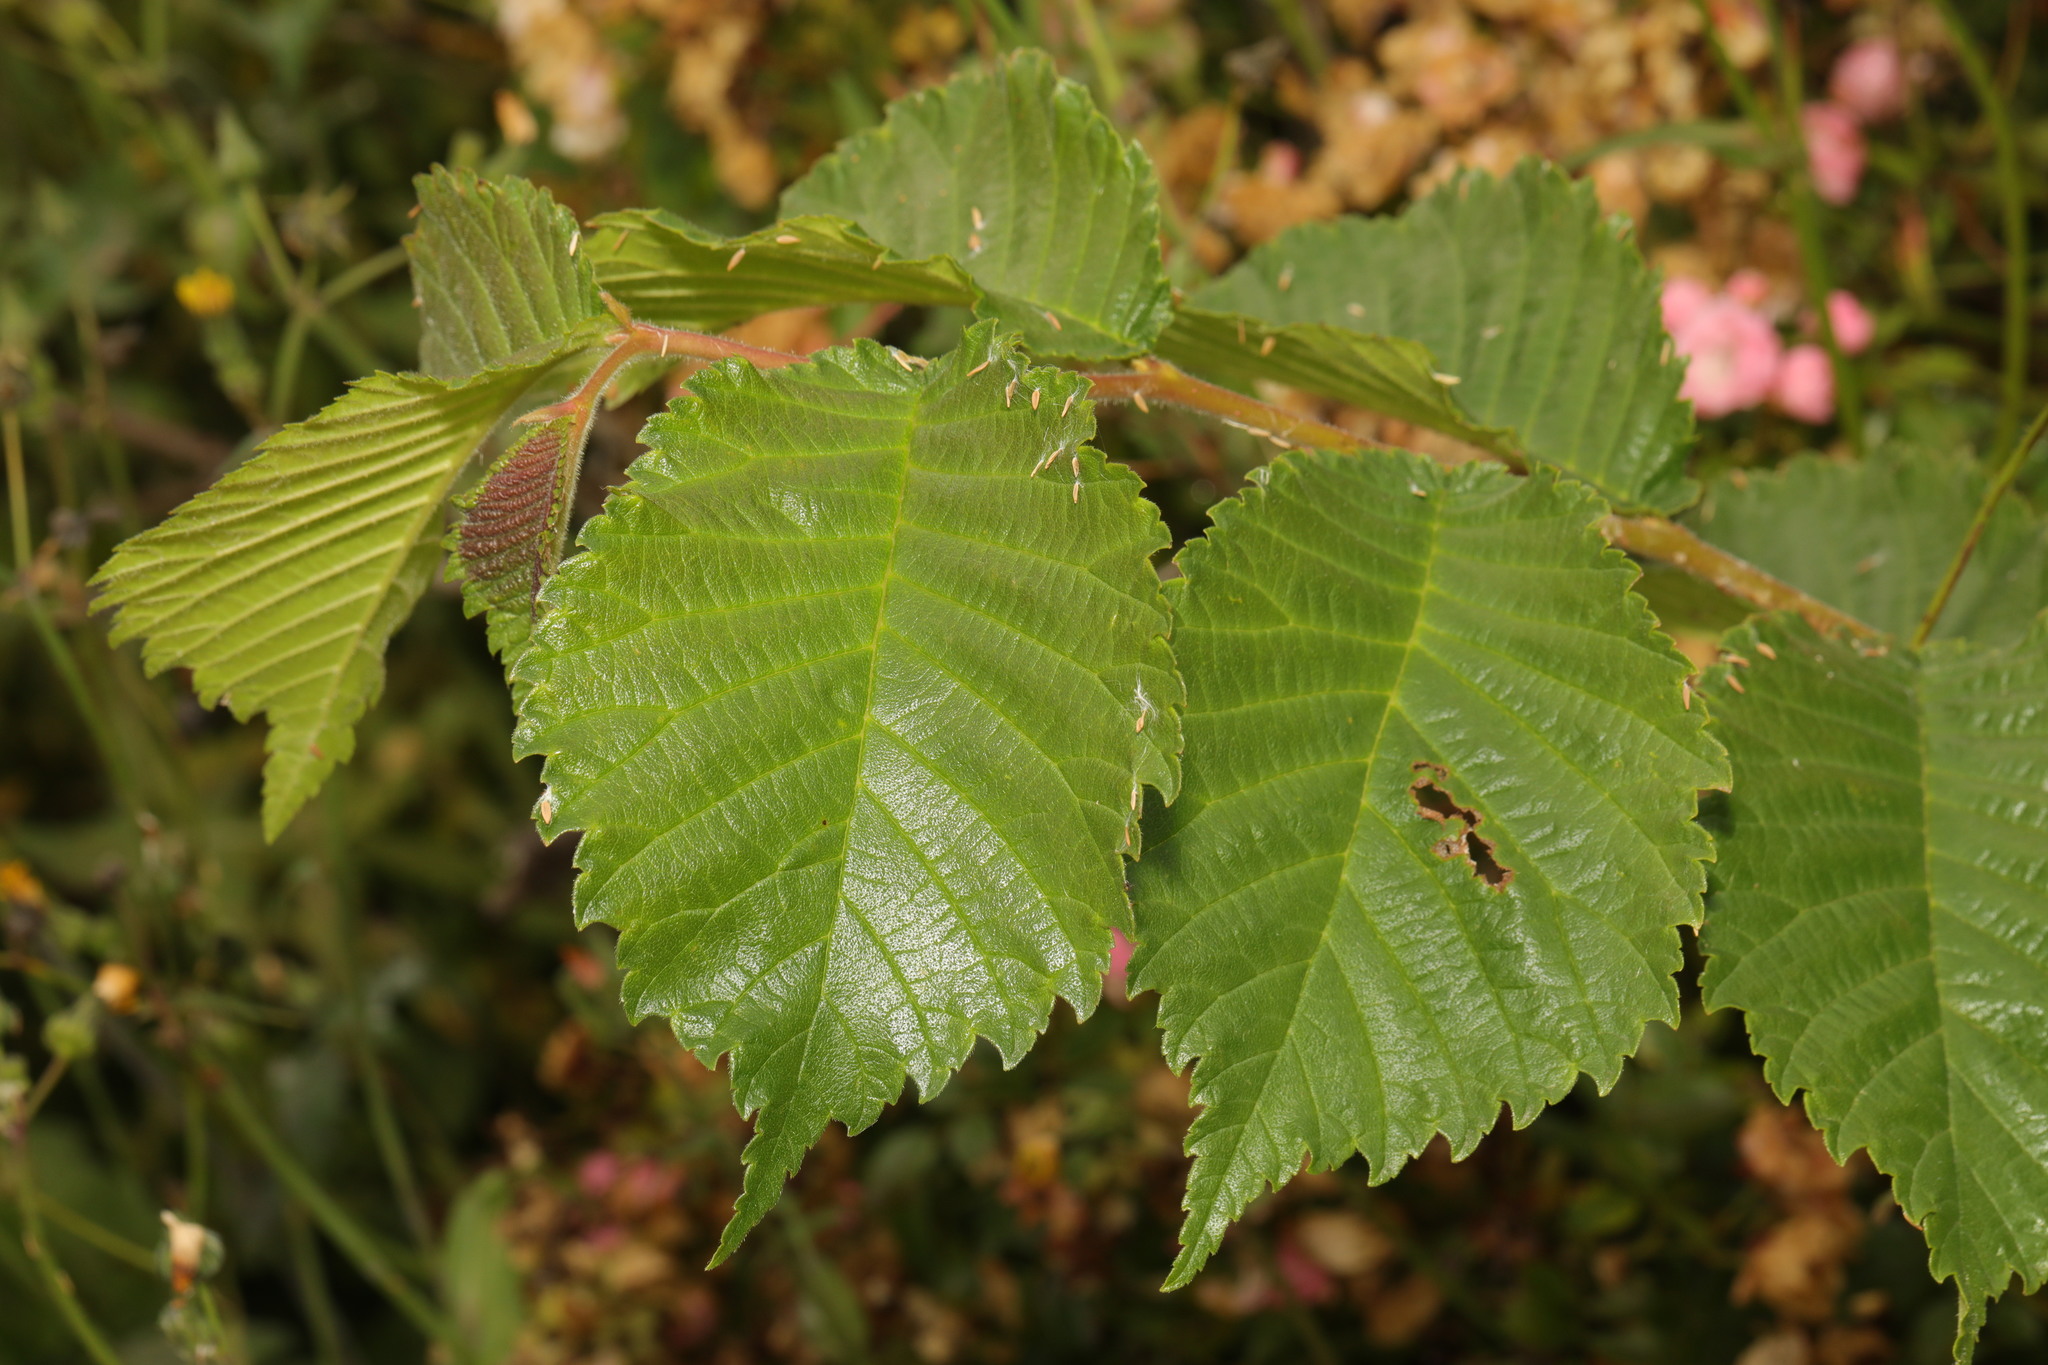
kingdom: Plantae
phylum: Tracheophyta
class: Magnoliopsida
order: Rosales
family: Ulmaceae
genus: Ulmus
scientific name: Ulmus glabra
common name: Wych elm
